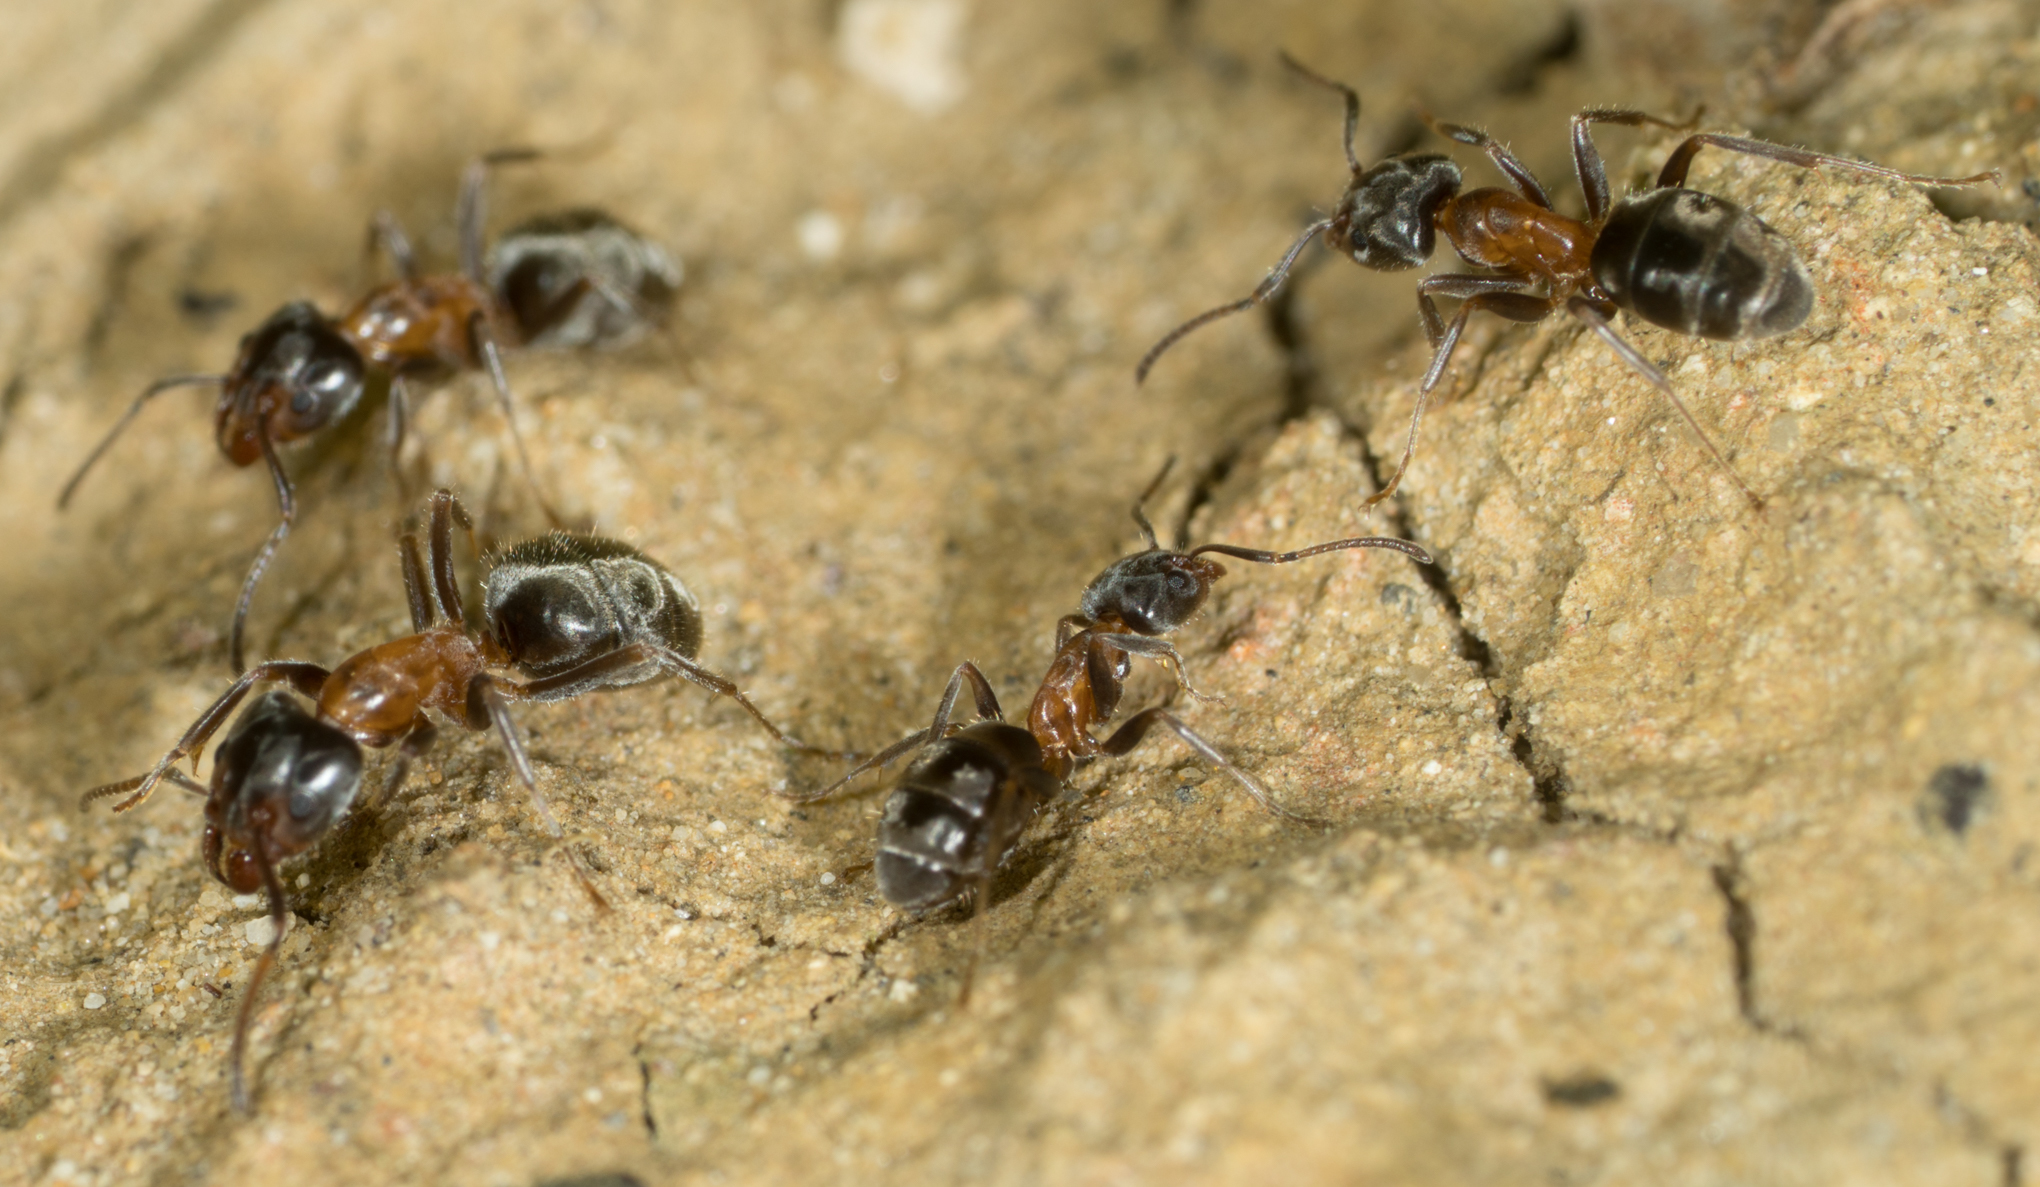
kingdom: Animalia
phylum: Arthropoda
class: Insecta
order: Hymenoptera
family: Formicidae
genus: Liometopum
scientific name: Liometopum occidentale
